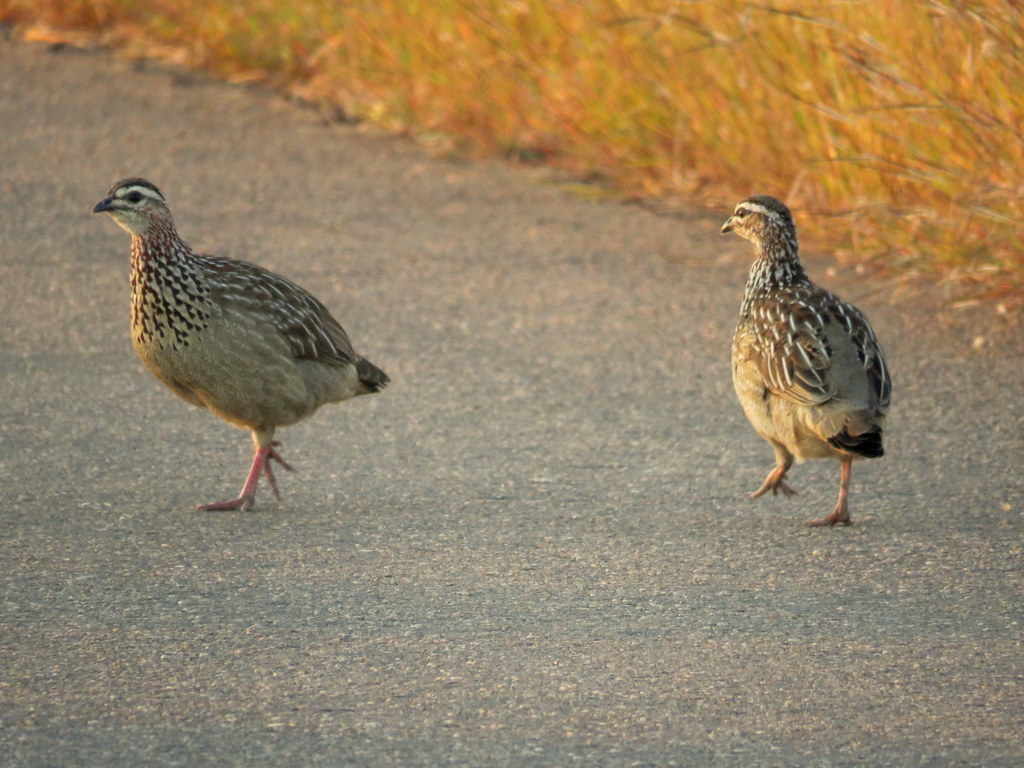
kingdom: Animalia
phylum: Chordata
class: Aves
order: Galliformes
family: Phasianidae
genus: Ortygornis
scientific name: Ortygornis sephaena
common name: Crested francolin
